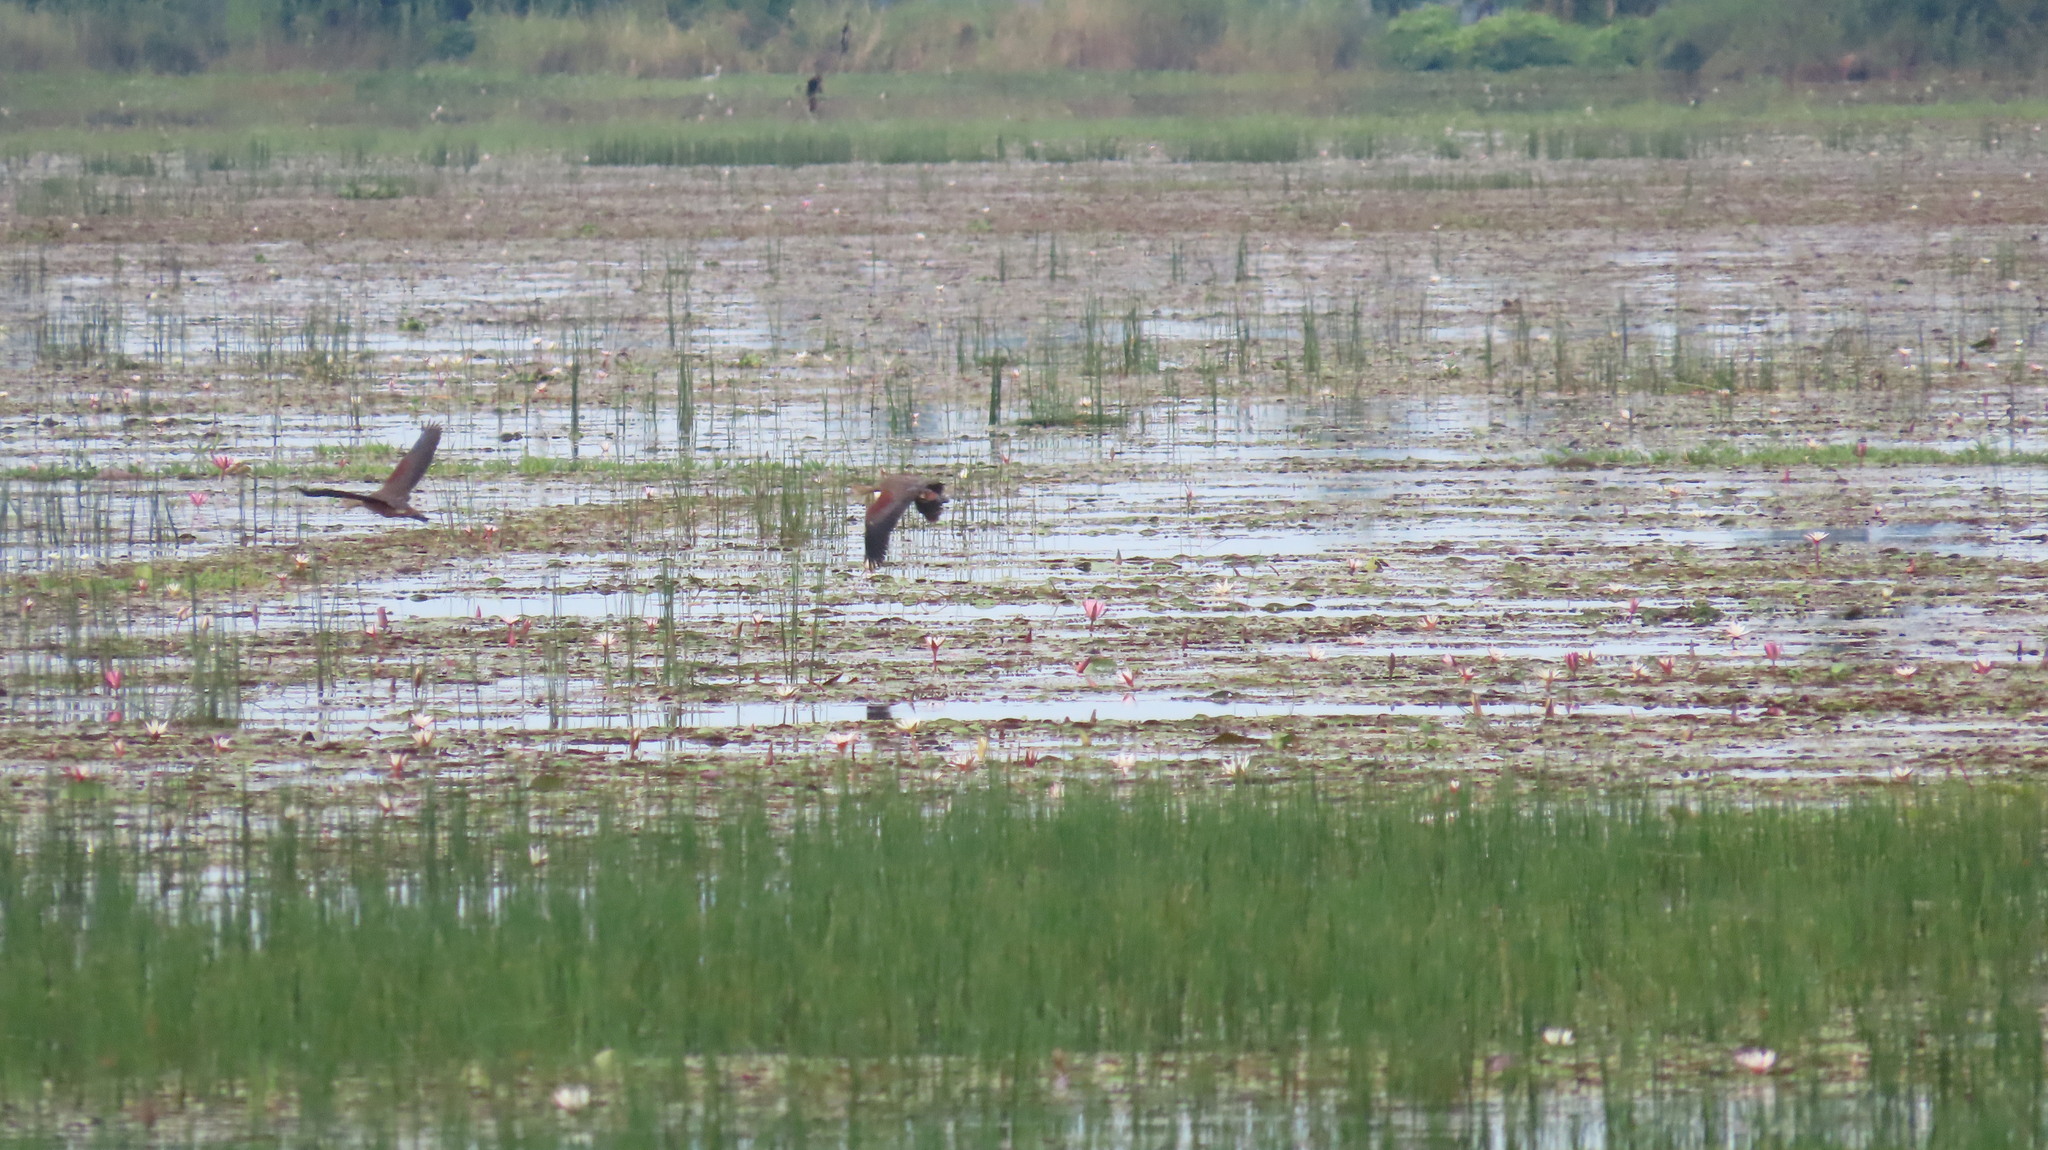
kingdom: Animalia
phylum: Chordata
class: Aves
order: Anseriformes
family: Anatidae
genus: Dendrocygna
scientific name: Dendrocygna javanica
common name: Lesser whistling-duck
